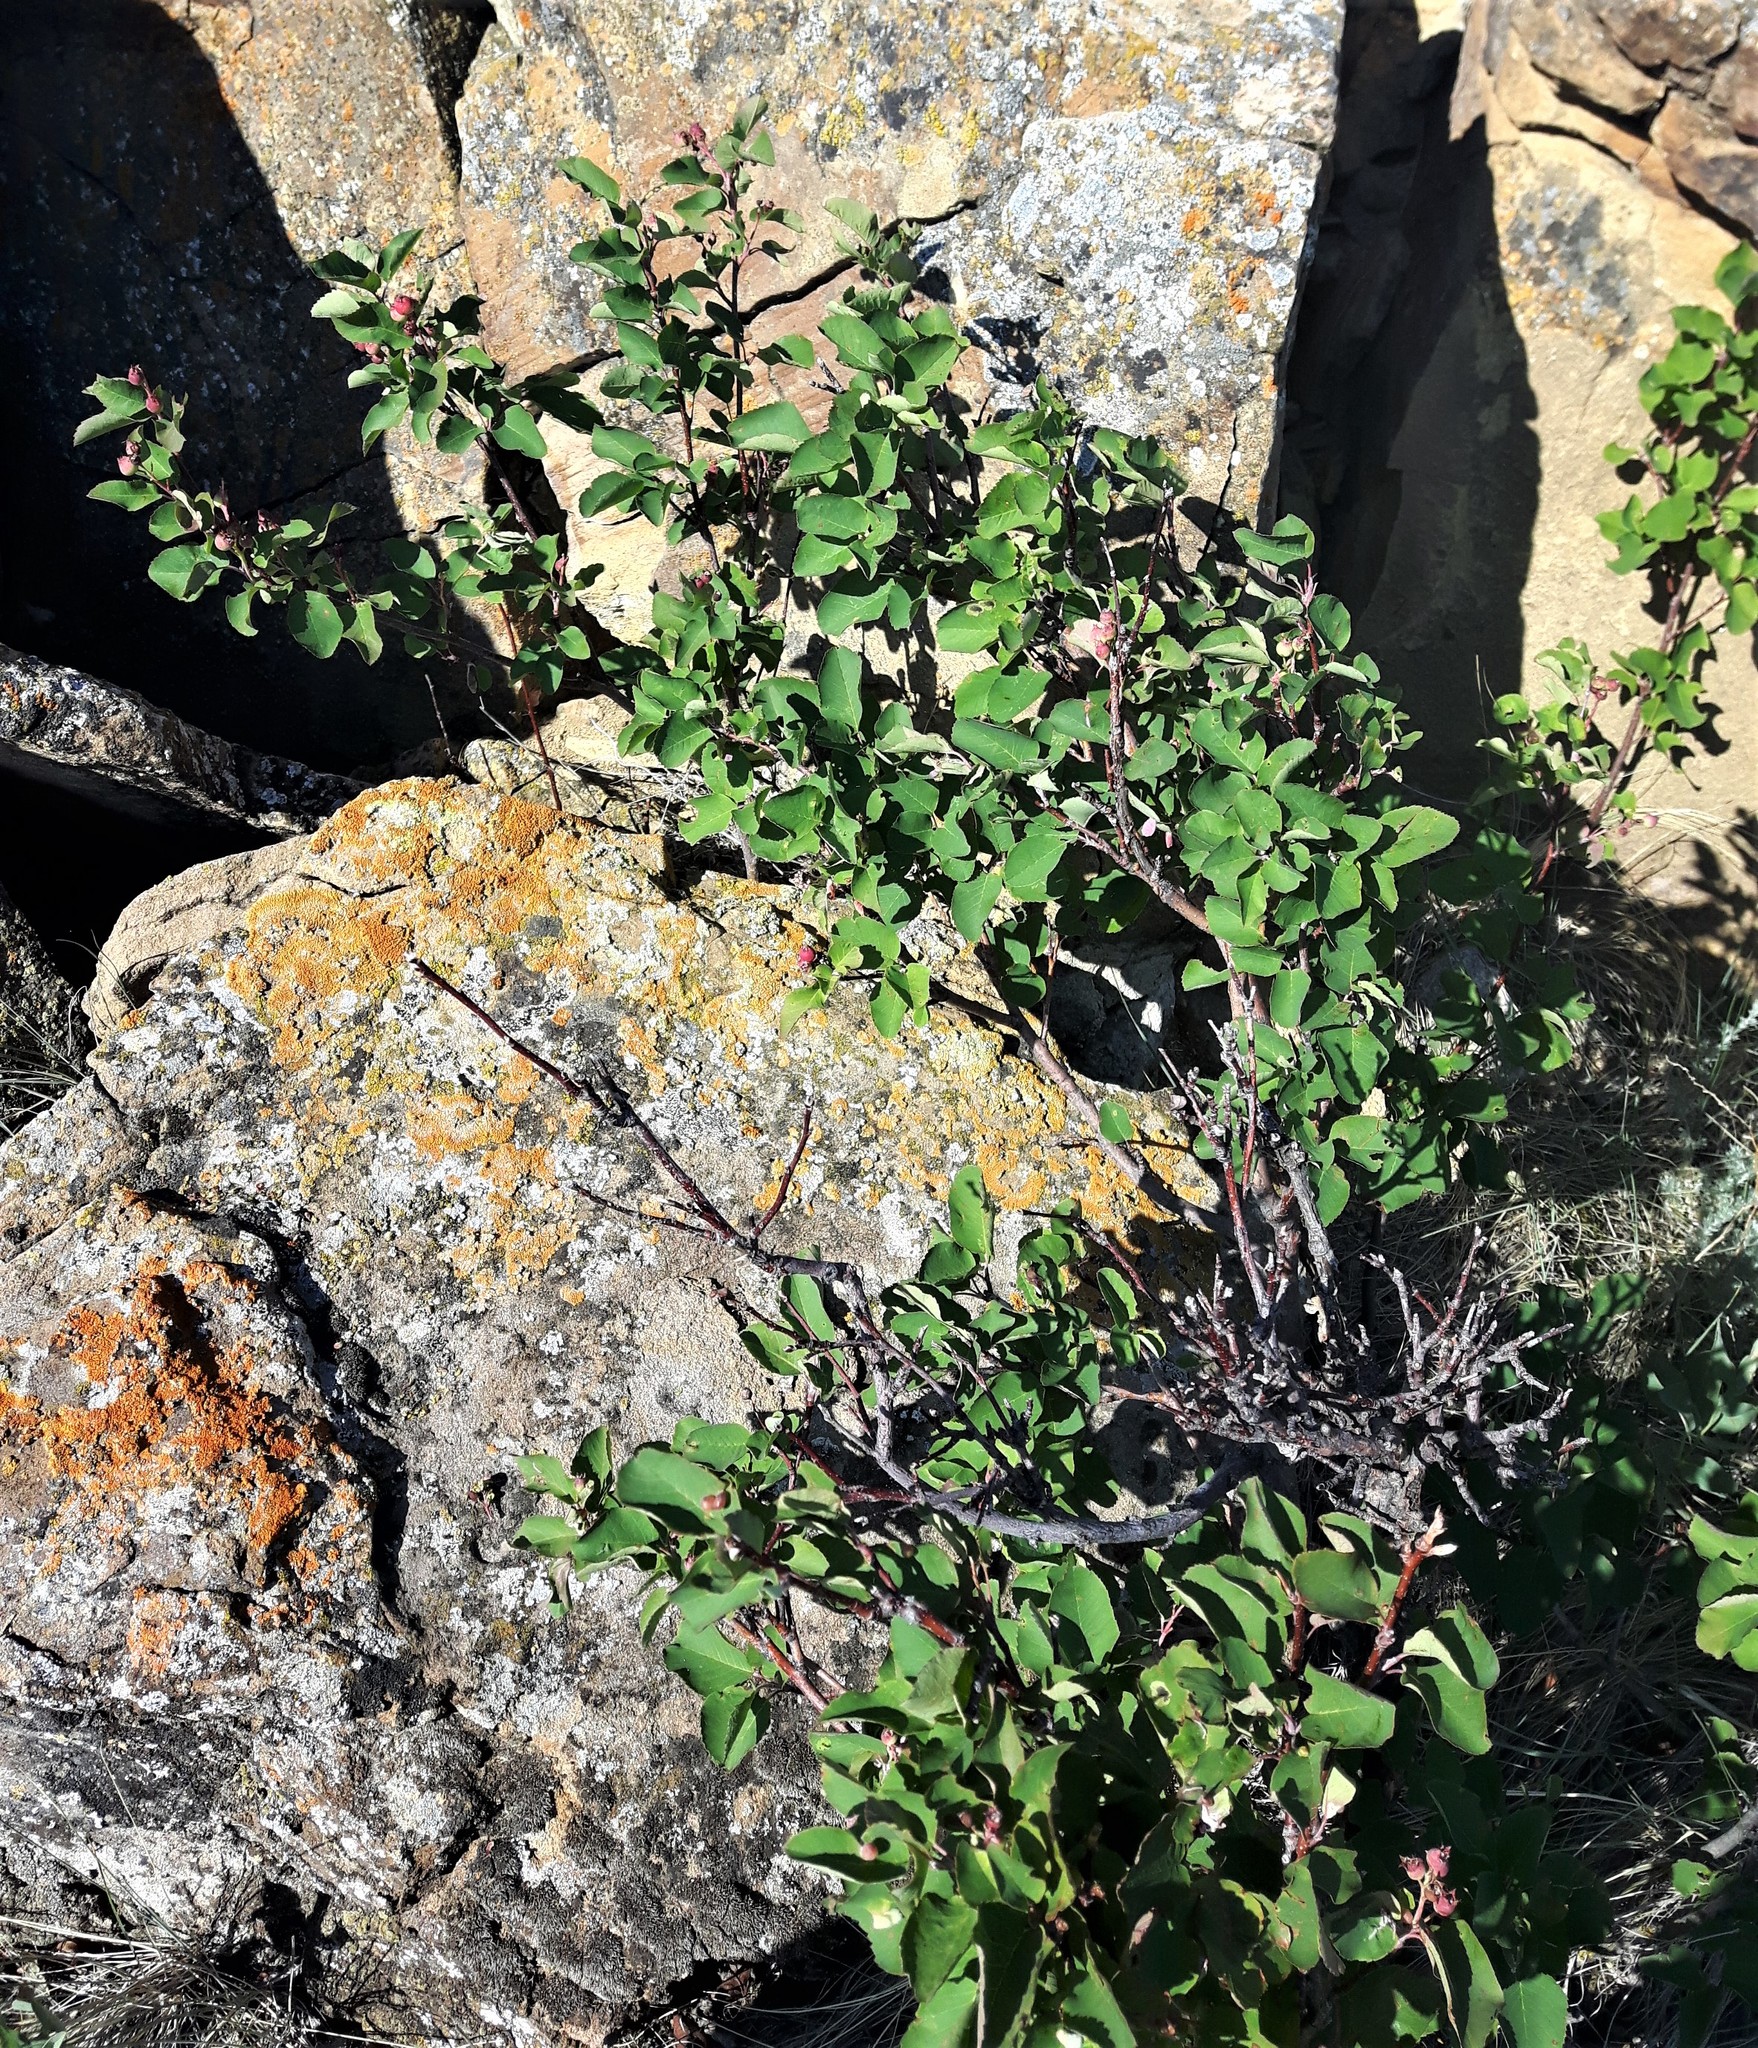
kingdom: Plantae
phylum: Tracheophyta
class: Magnoliopsida
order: Rosales
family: Rosaceae
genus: Amelanchier
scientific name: Amelanchier alnifolia
